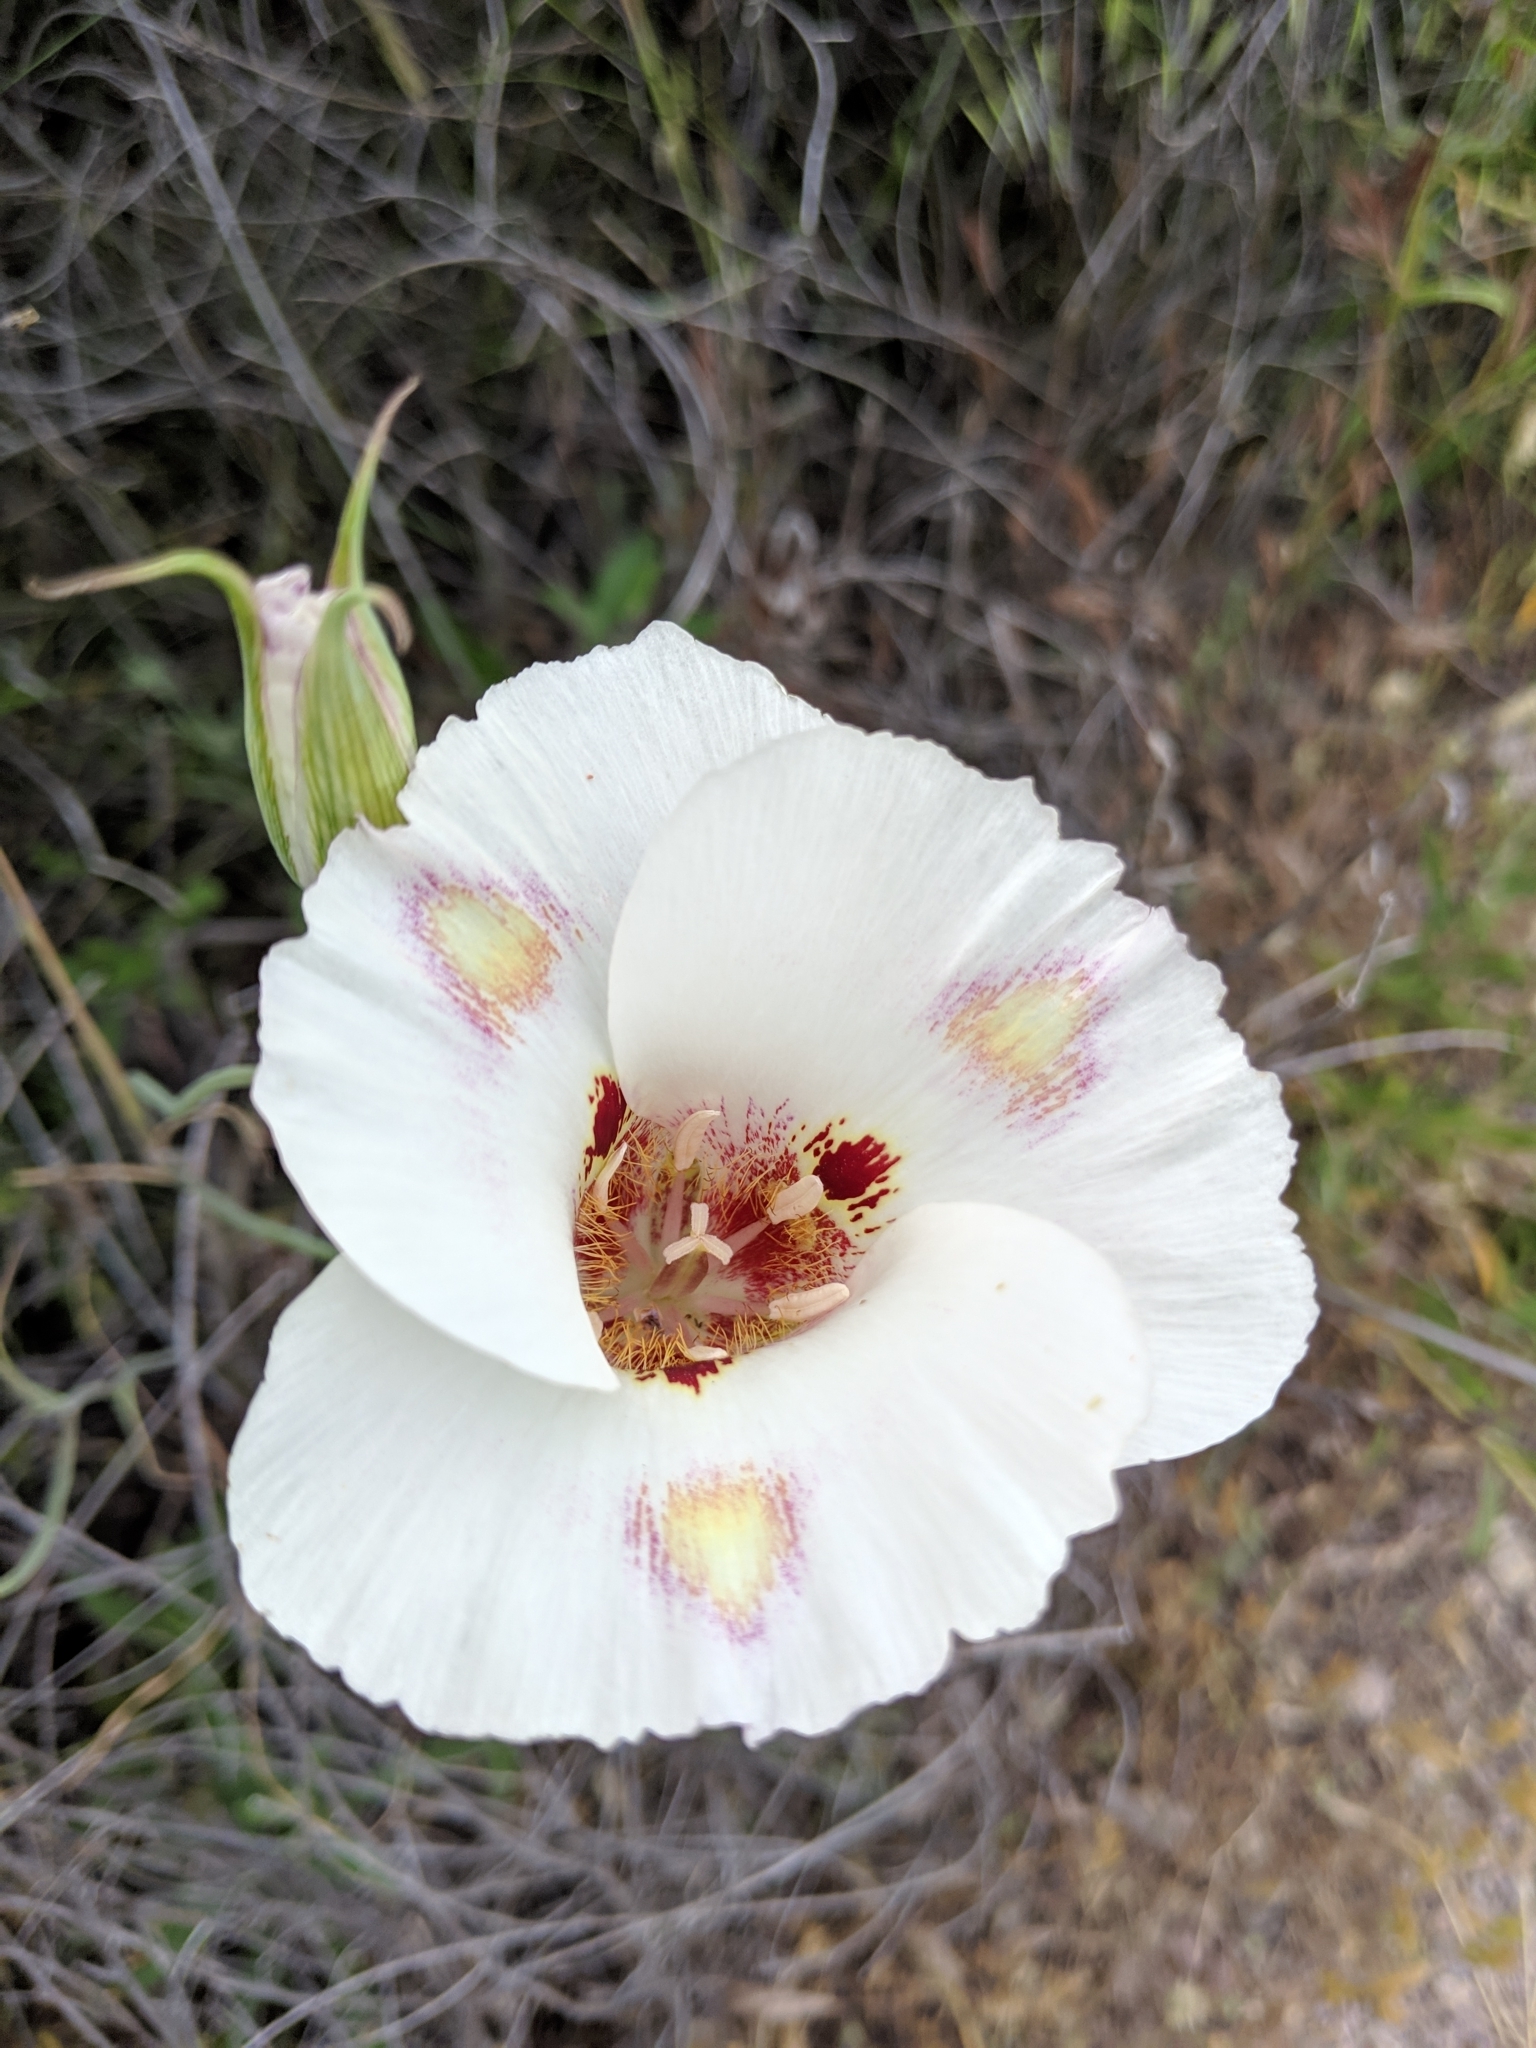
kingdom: Plantae
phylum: Tracheophyta
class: Liliopsida
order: Liliales
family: Liliaceae
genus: Calochortus
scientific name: Calochortus venustus
